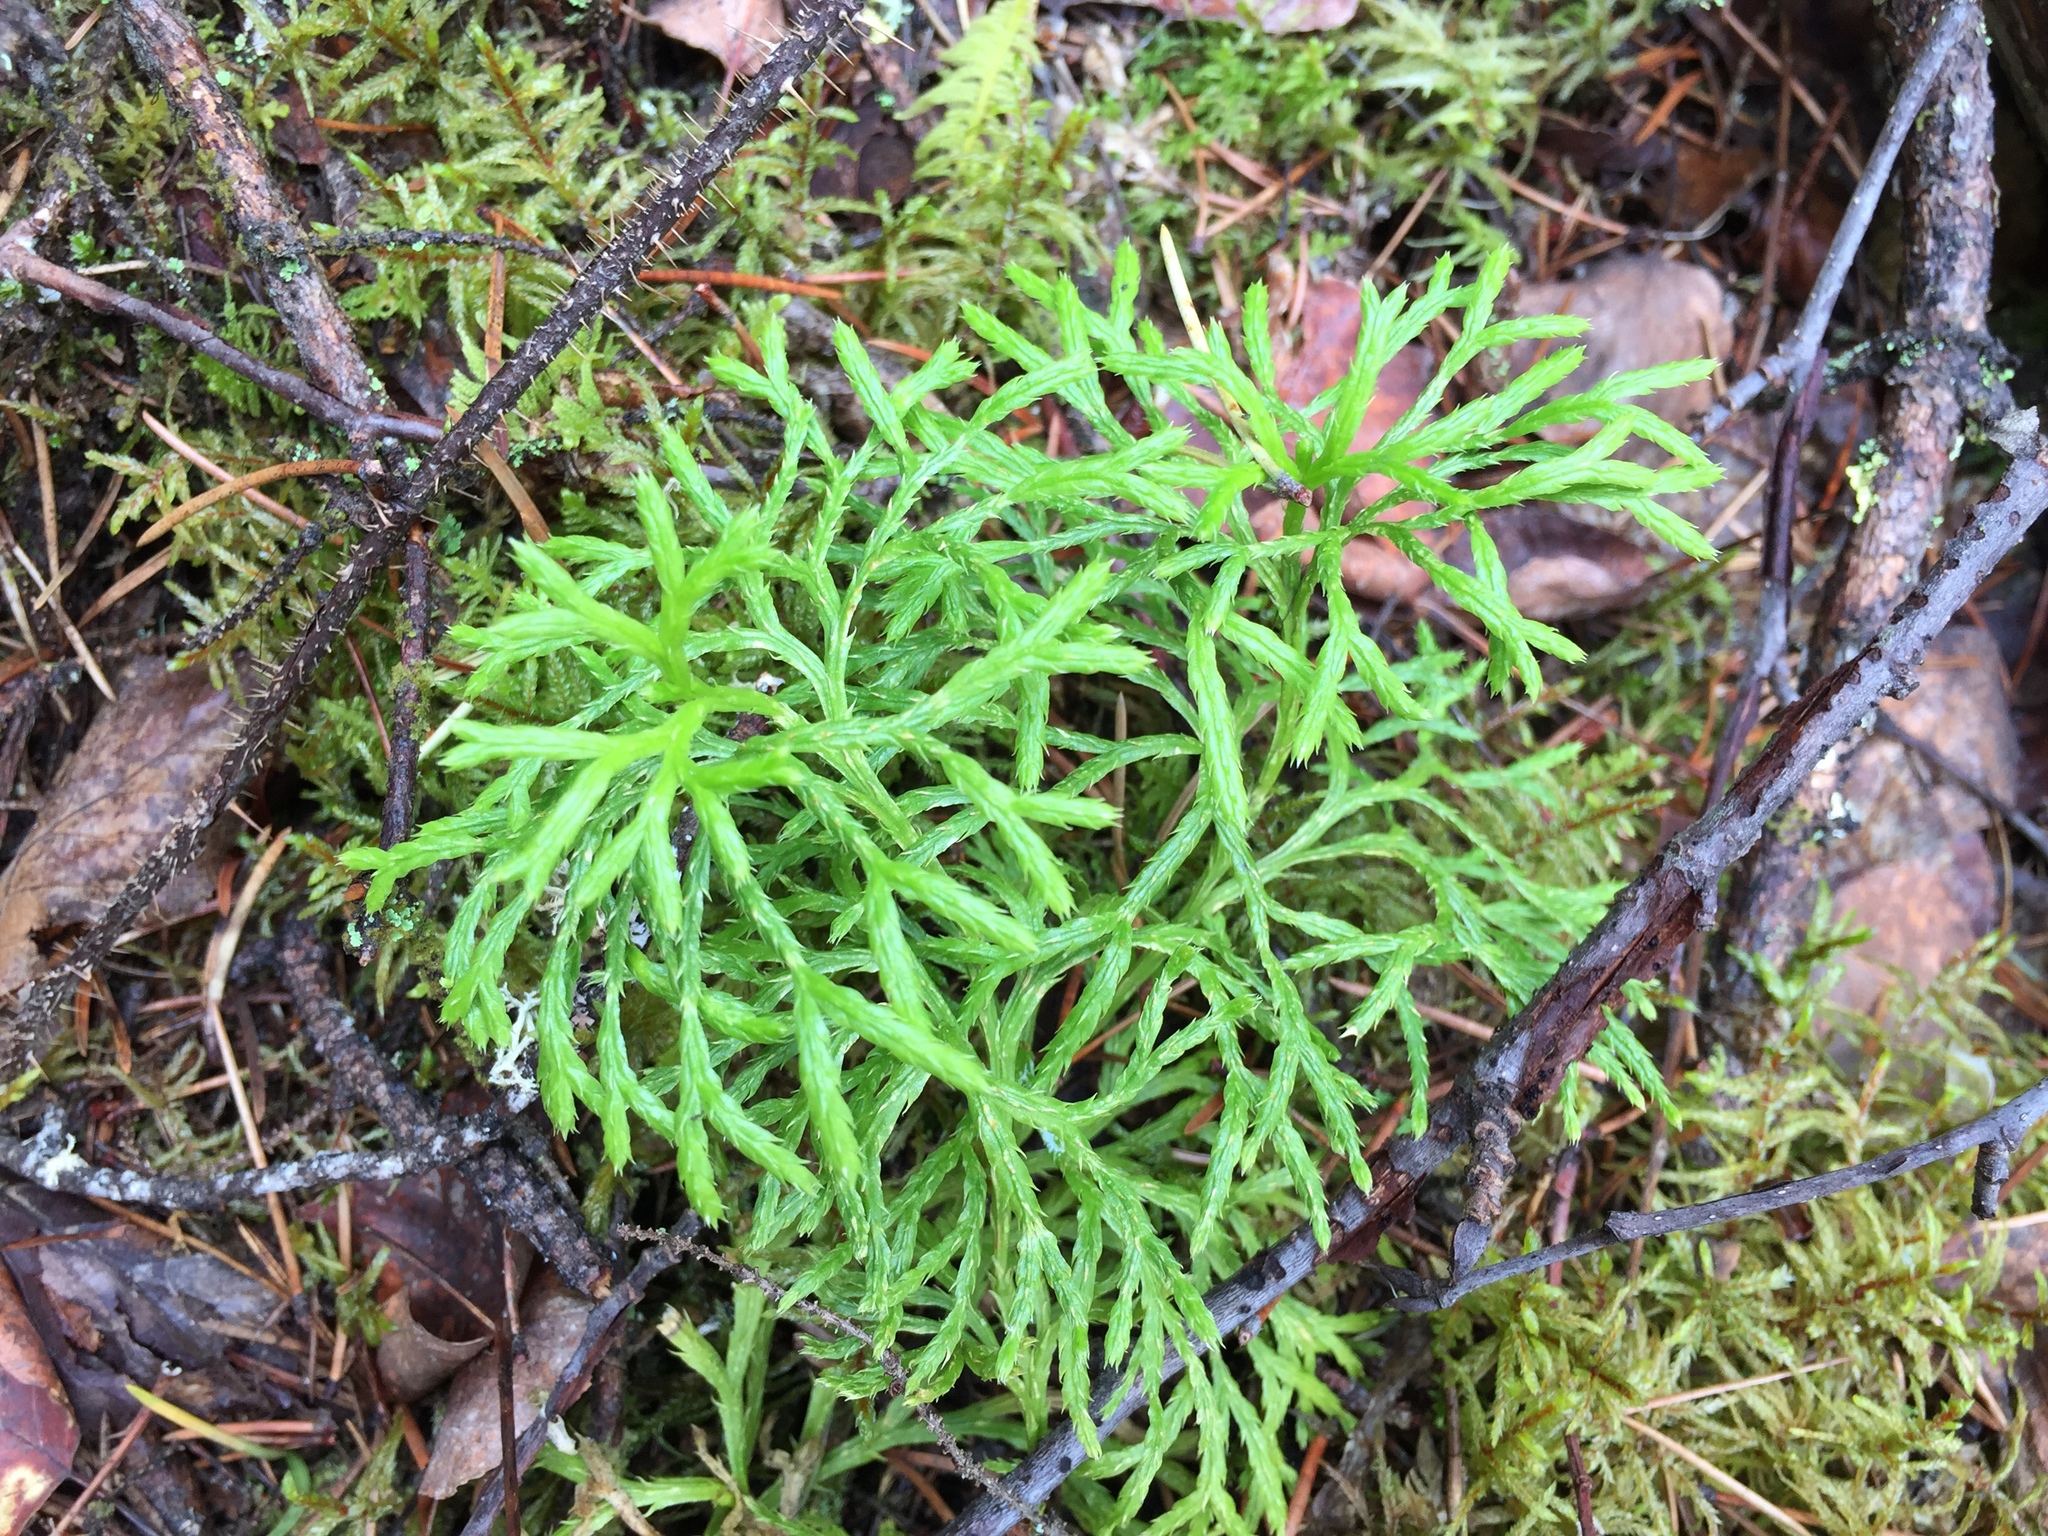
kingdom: Plantae
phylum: Tracheophyta
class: Lycopodiopsida
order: Lycopodiales
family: Lycopodiaceae
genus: Diphasiastrum
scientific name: Diphasiastrum complanatum
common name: Northern running-pine
